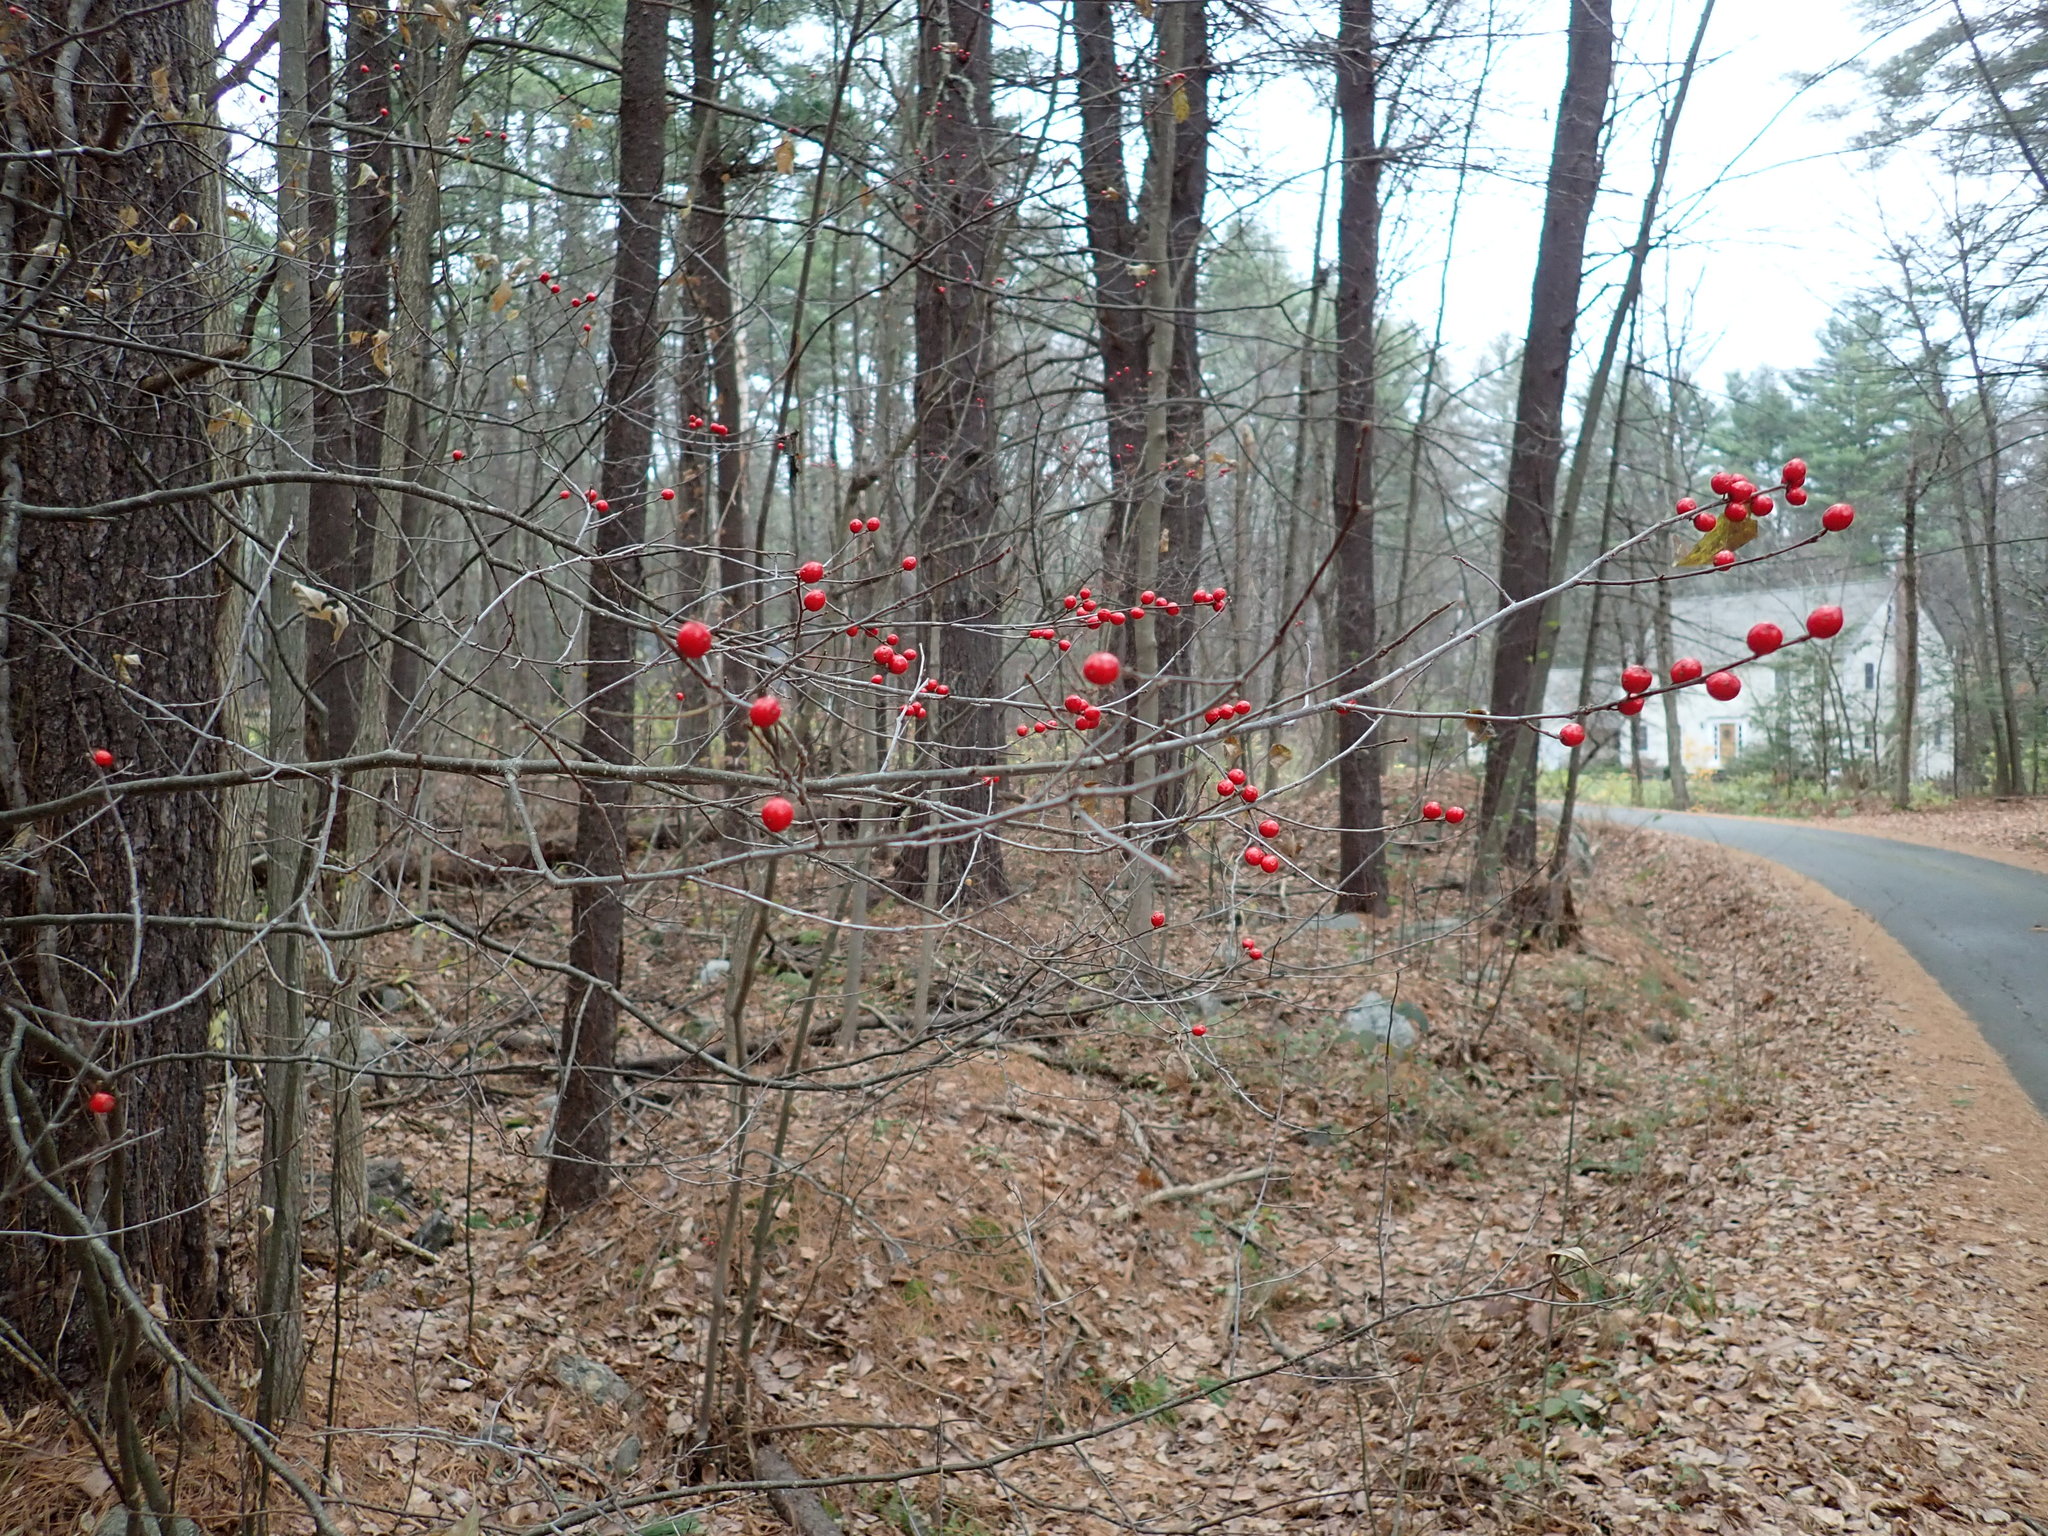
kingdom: Plantae
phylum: Tracheophyta
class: Magnoliopsida
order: Aquifoliales
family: Aquifoliaceae
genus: Ilex
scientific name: Ilex verticillata
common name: Virginia winterberry
